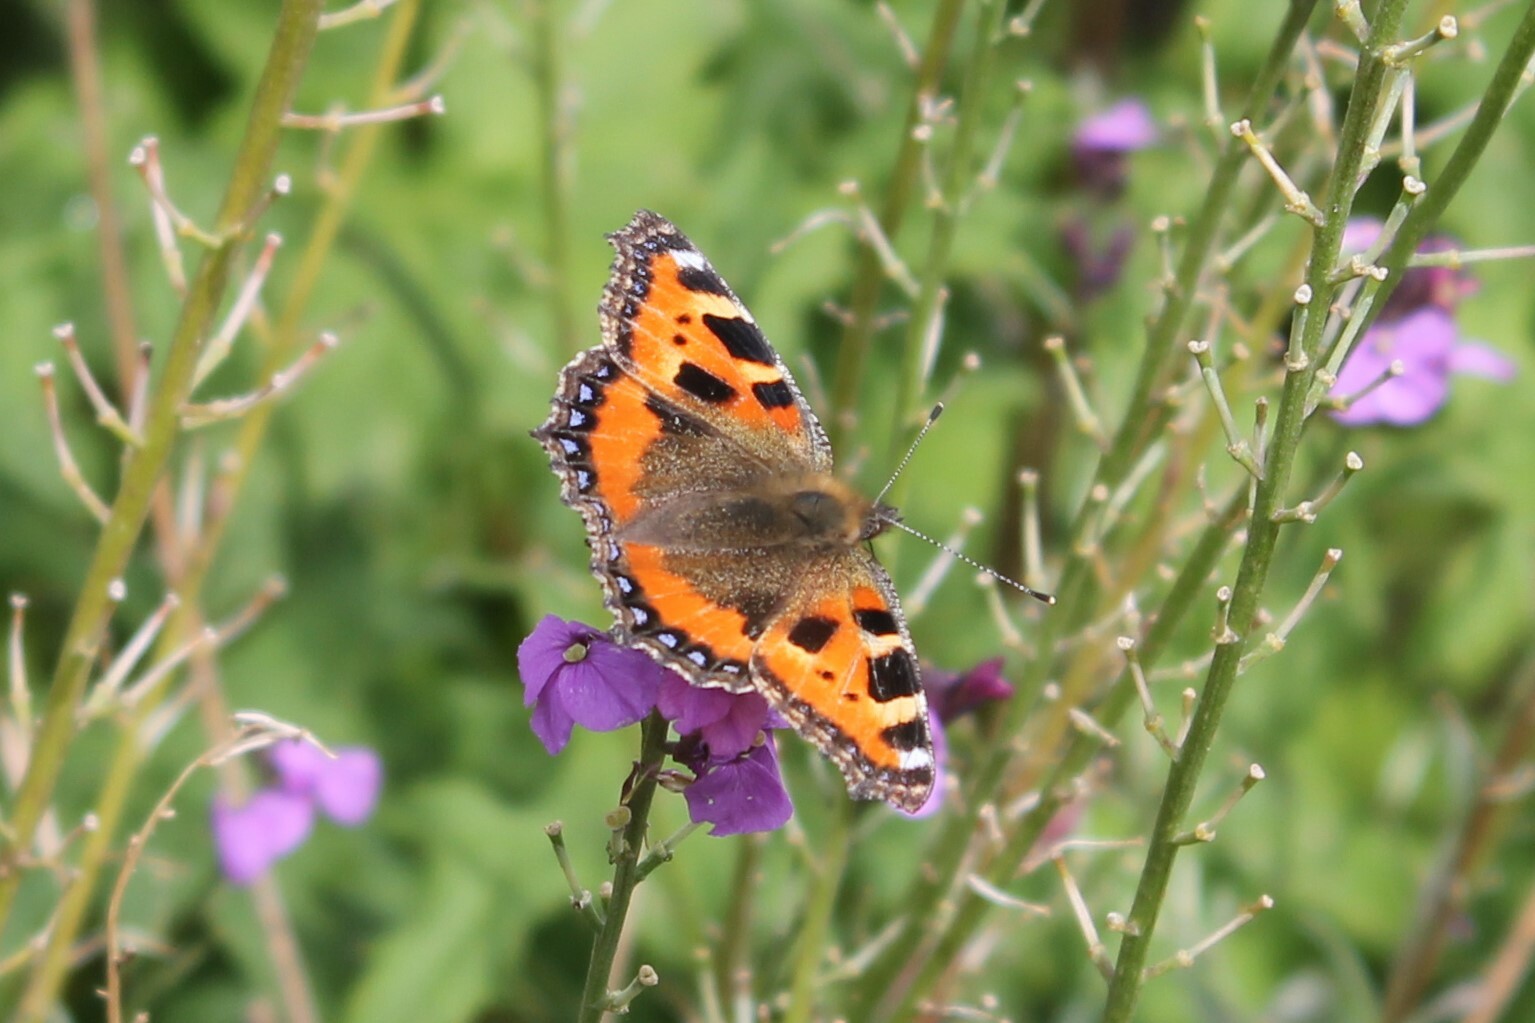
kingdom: Animalia
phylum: Arthropoda
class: Insecta
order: Lepidoptera
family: Nymphalidae
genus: Aglais
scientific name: Aglais urticae
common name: Small tortoiseshell
